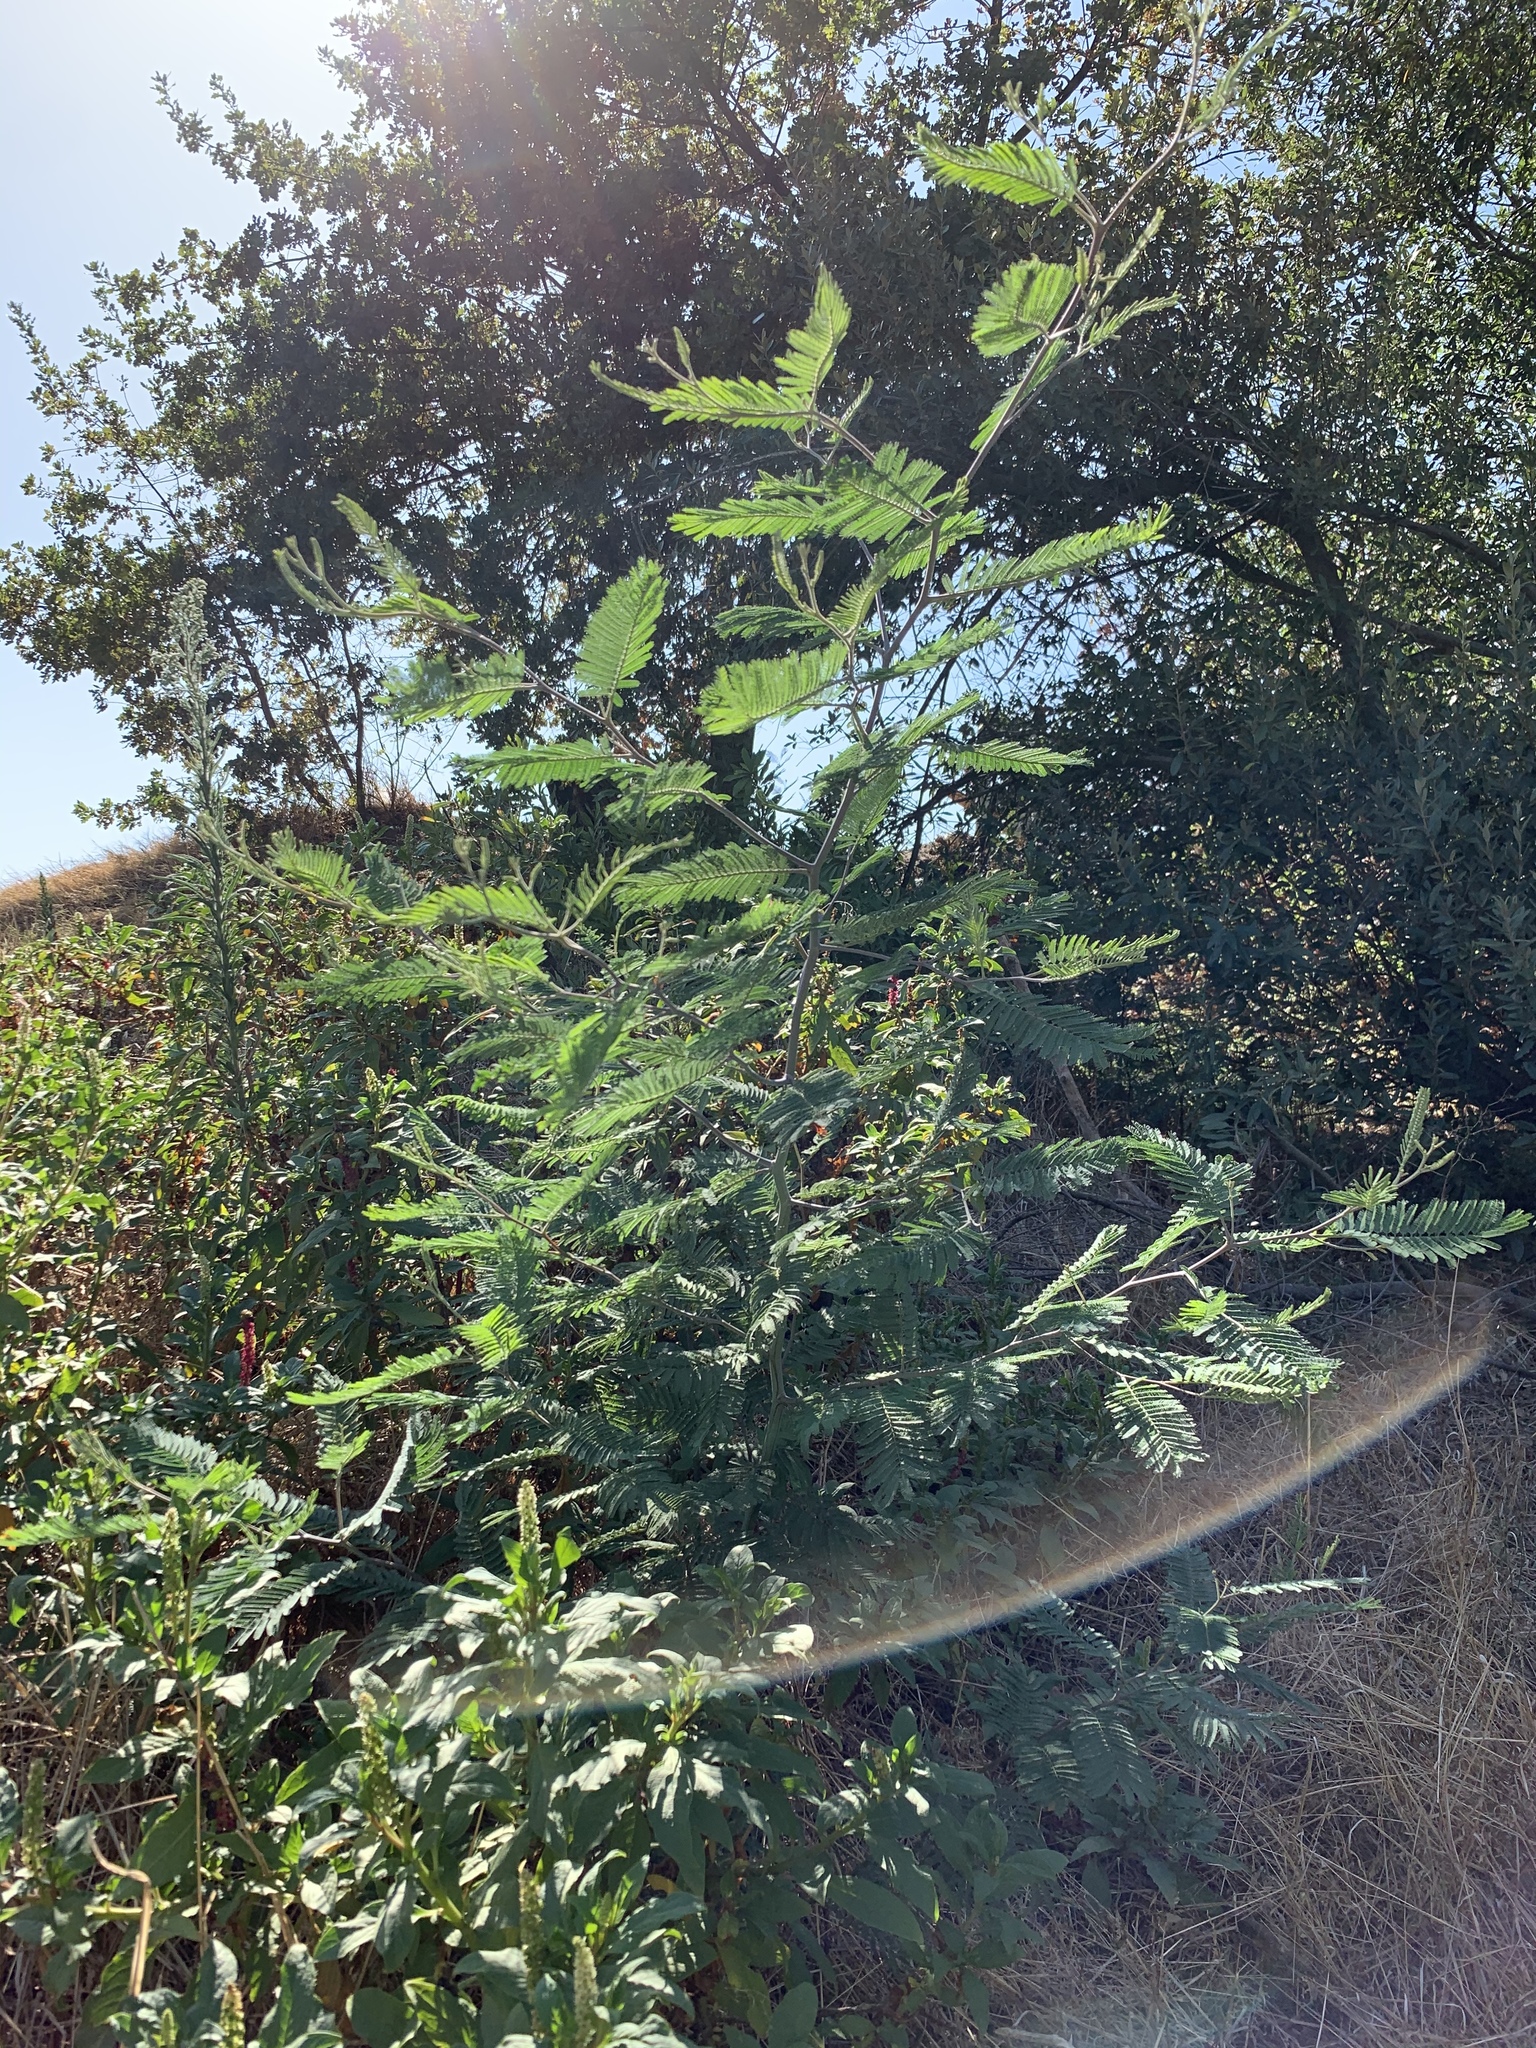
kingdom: Plantae
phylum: Tracheophyta
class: Magnoliopsida
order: Fabales
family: Fabaceae
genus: Acacia
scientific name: Acacia mearnsii
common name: Black wattle
